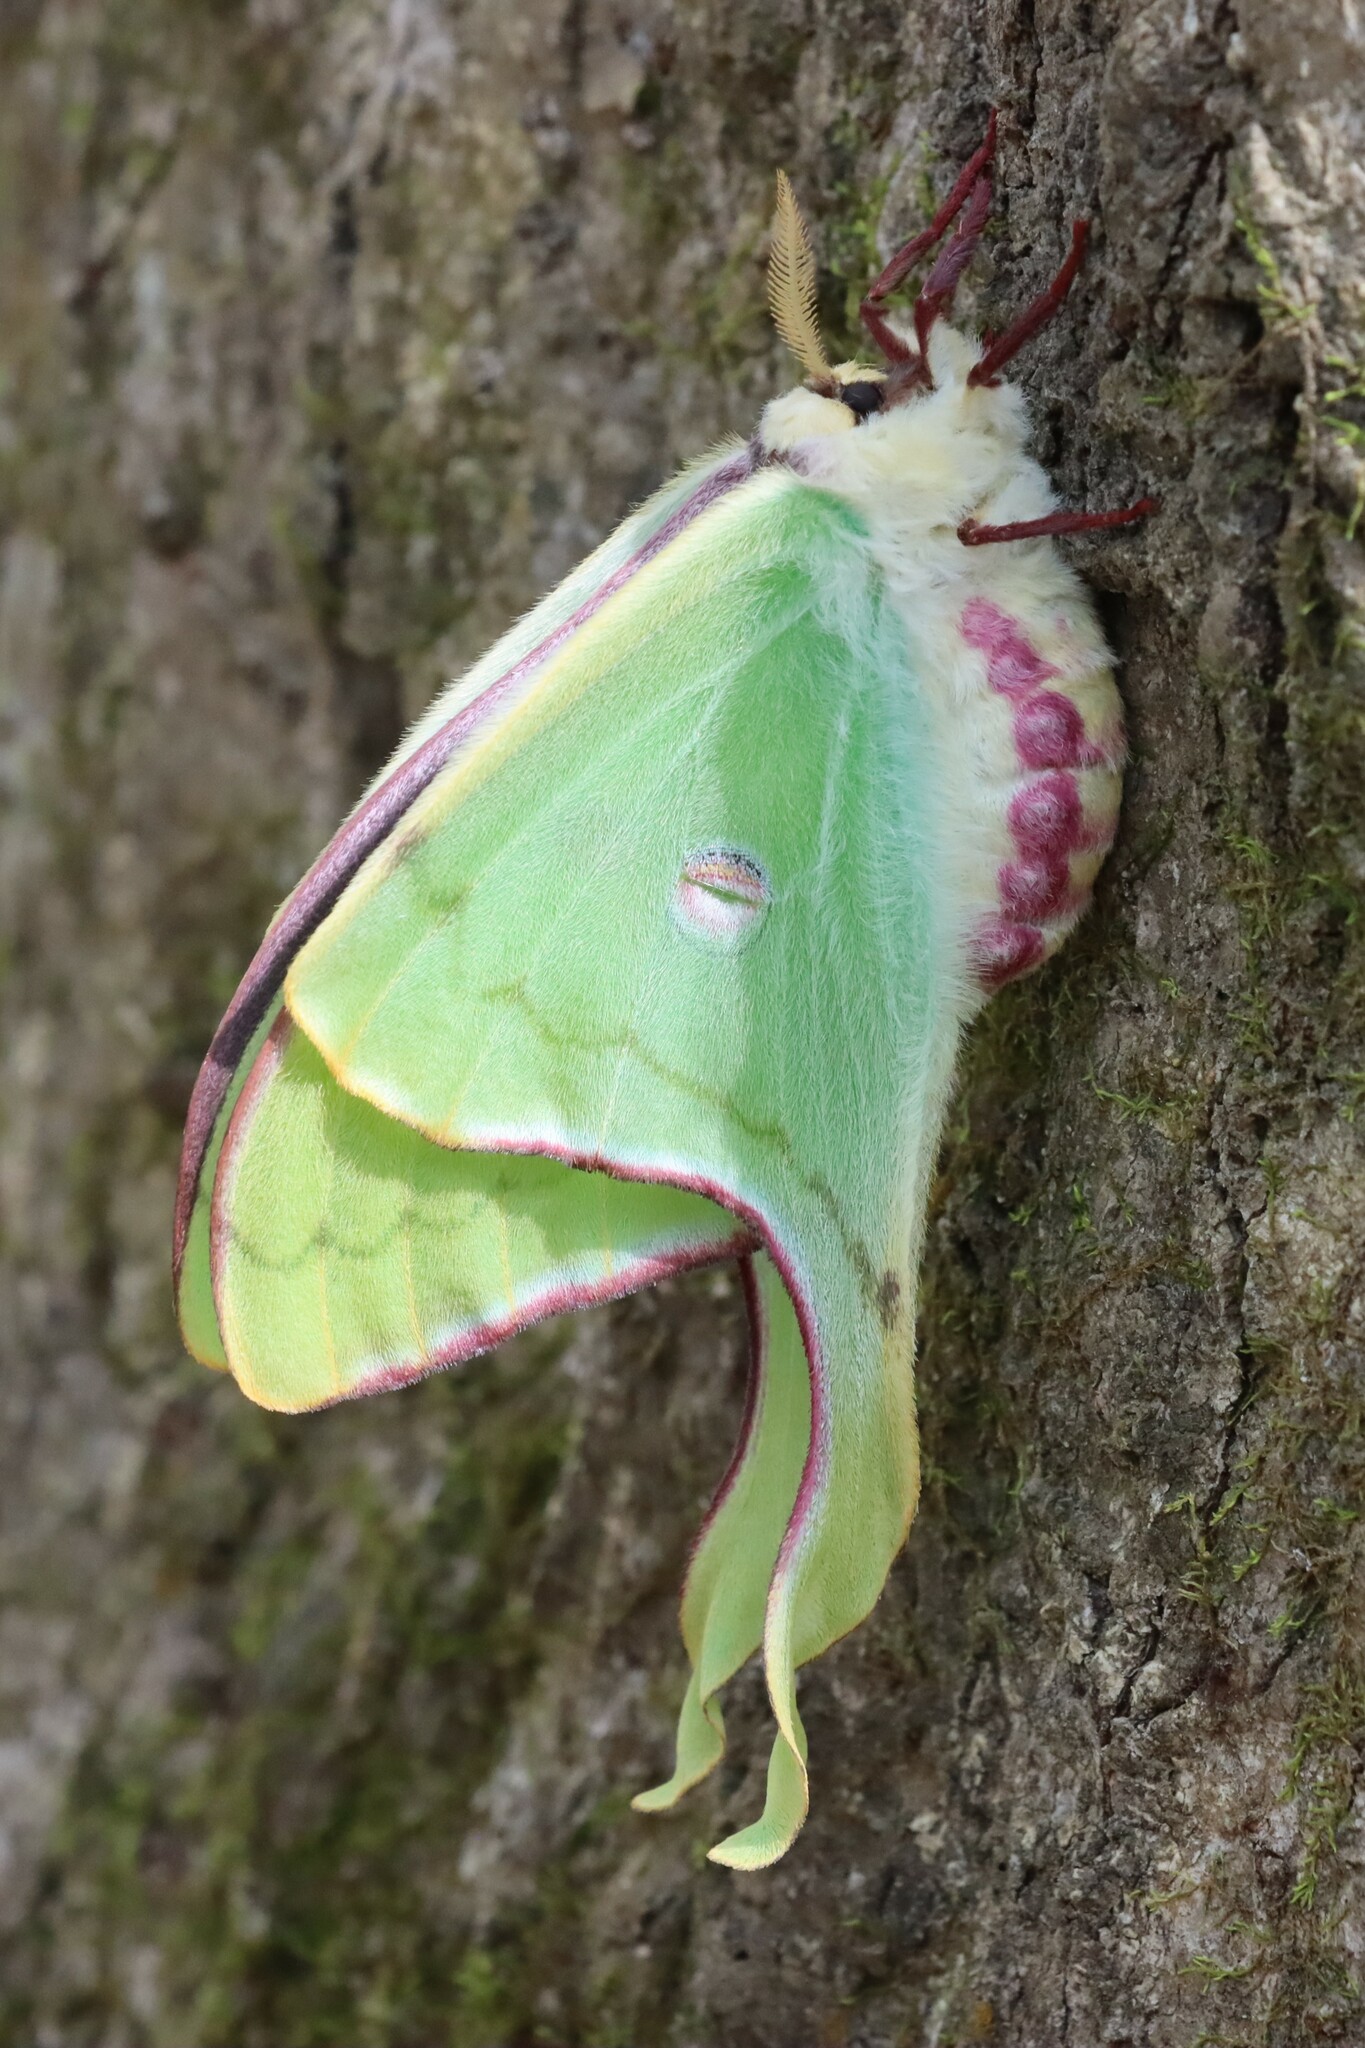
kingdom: Animalia
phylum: Arthropoda
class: Insecta
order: Lepidoptera
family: Saturniidae
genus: Actias
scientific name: Actias luna
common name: Luna moth
